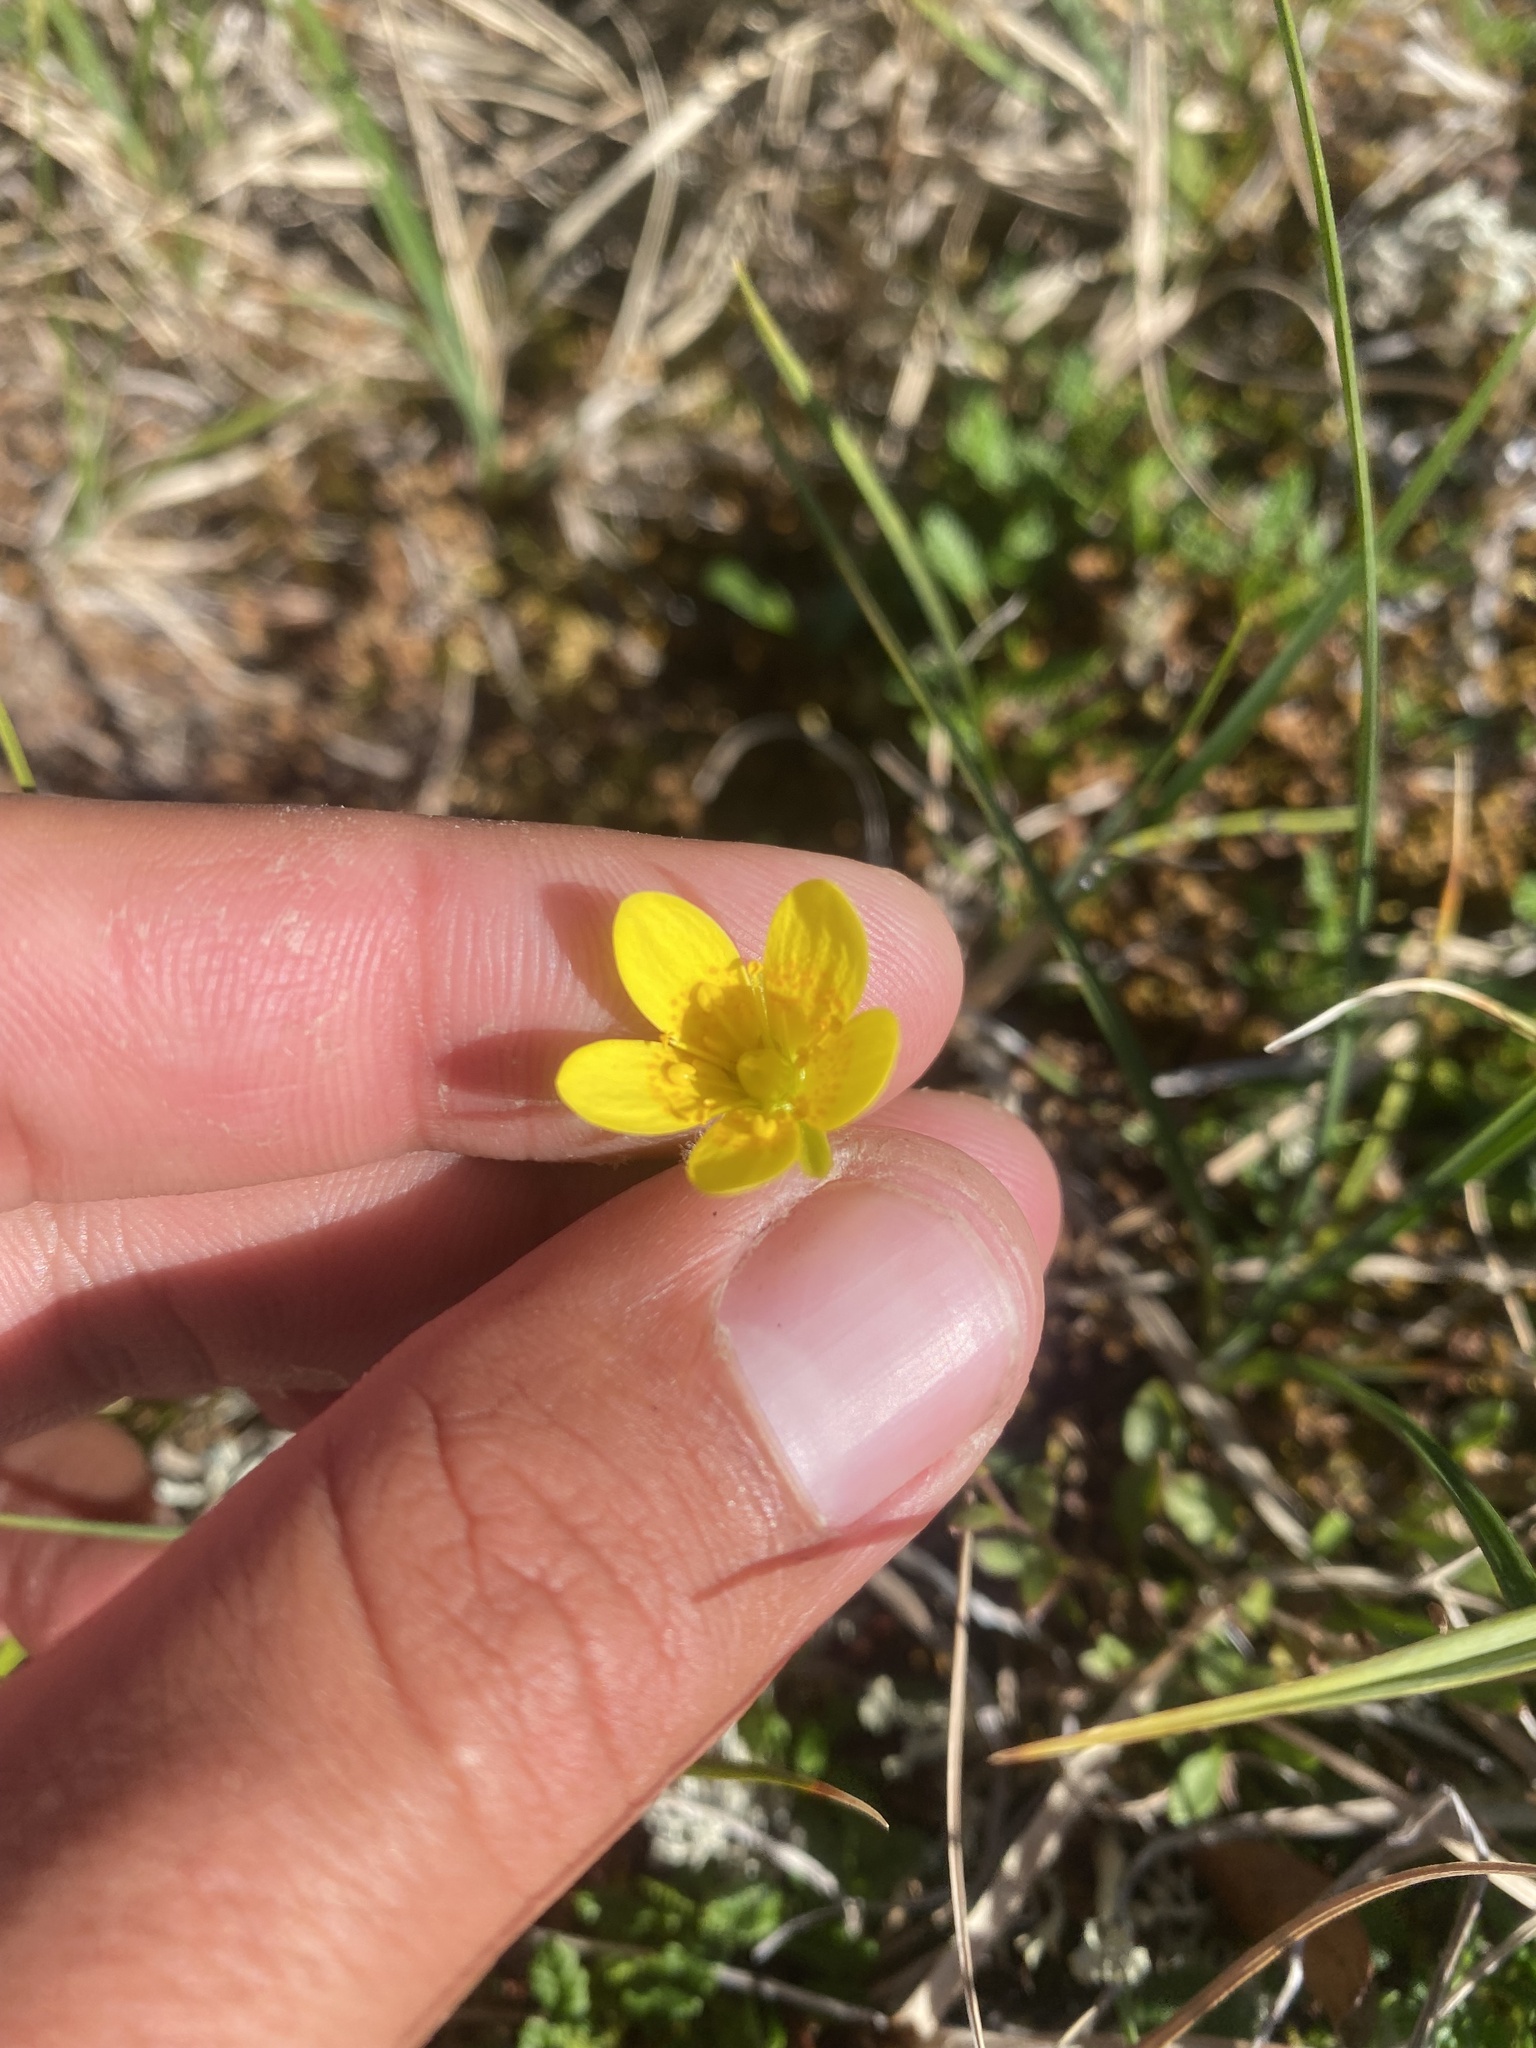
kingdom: Plantae
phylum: Tracheophyta
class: Magnoliopsida
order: Saxifragales
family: Saxifragaceae
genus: Saxifraga
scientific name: Saxifraga hirculus
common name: Yellow marsh saxifrage
